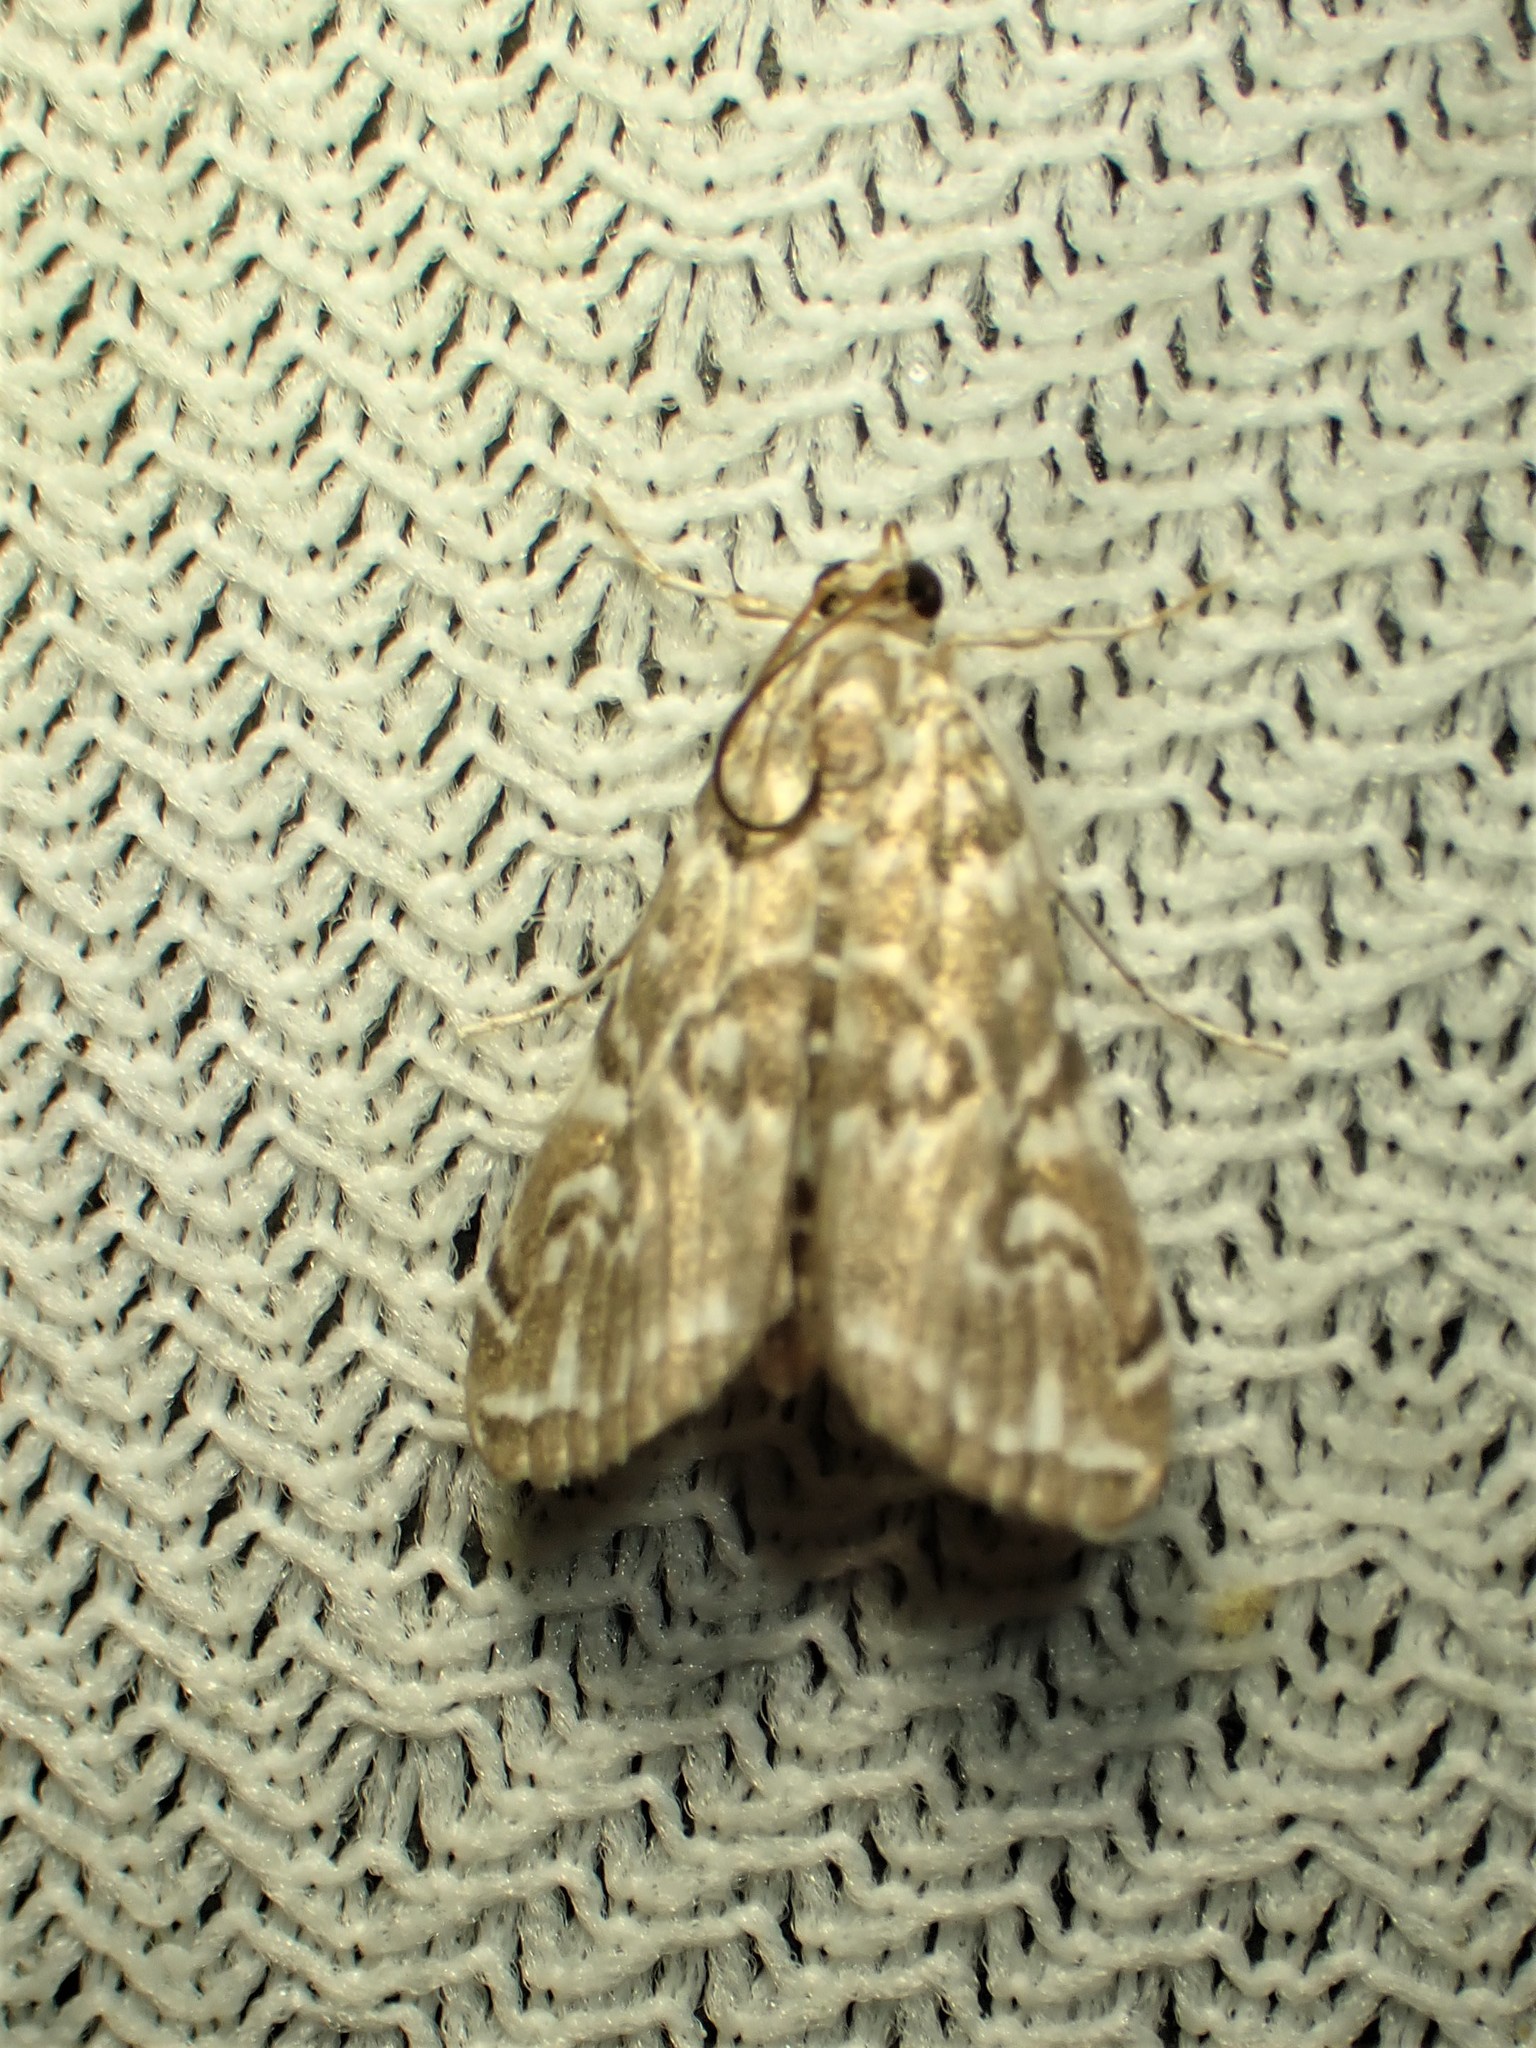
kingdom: Animalia
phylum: Arthropoda
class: Insecta
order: Lepidoptera
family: Crambidae
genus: Elophila
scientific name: Elophila gyralis
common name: Waterlily borer moth
